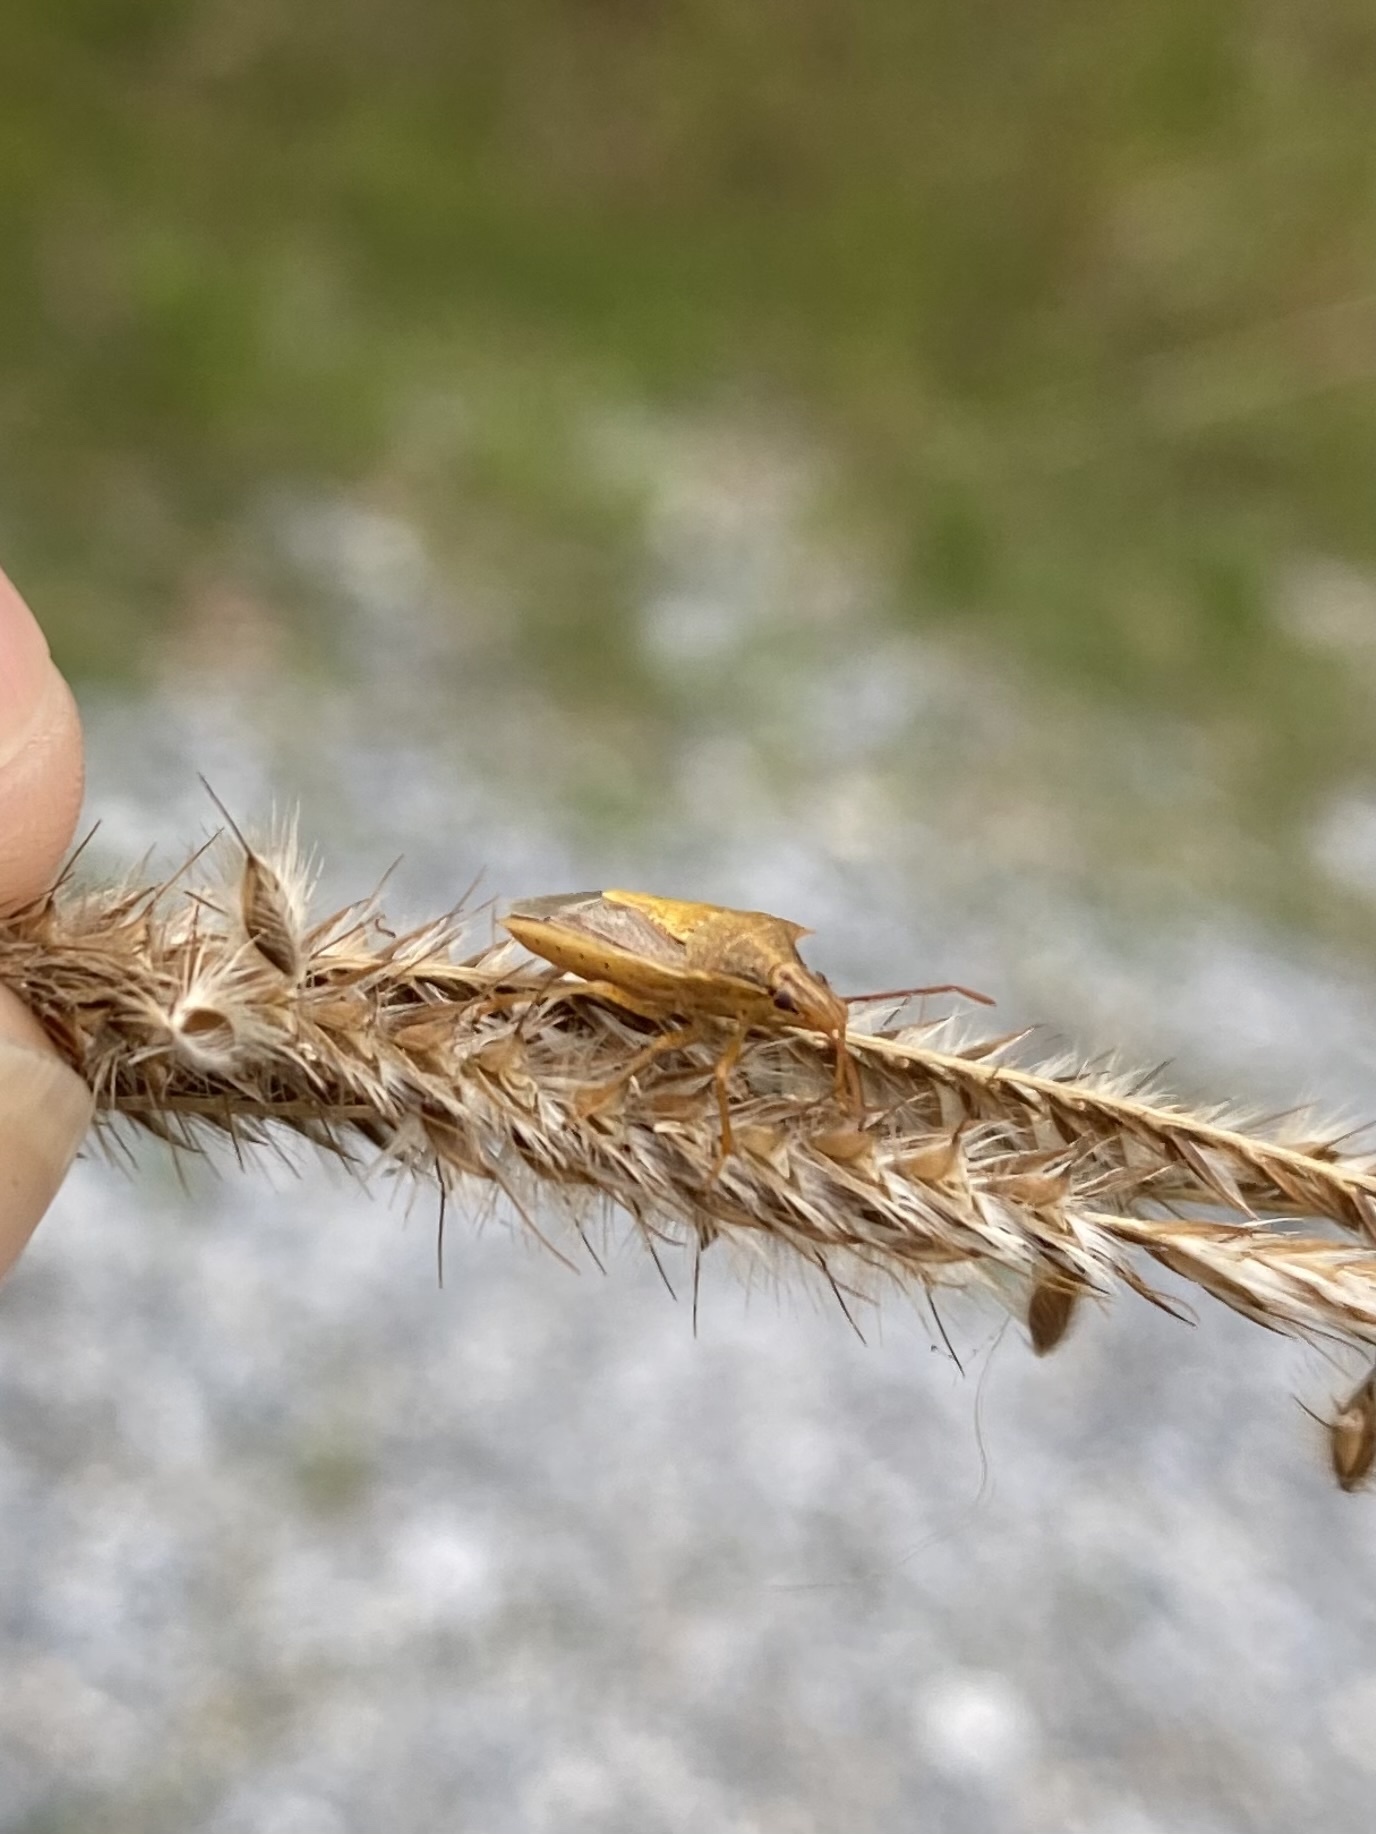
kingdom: Animalia
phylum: Arthropoda
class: Insecta
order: Hemiptera
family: Pentatomidae
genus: Oebalus
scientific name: Oebalus pugnax
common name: Rice stink bug
